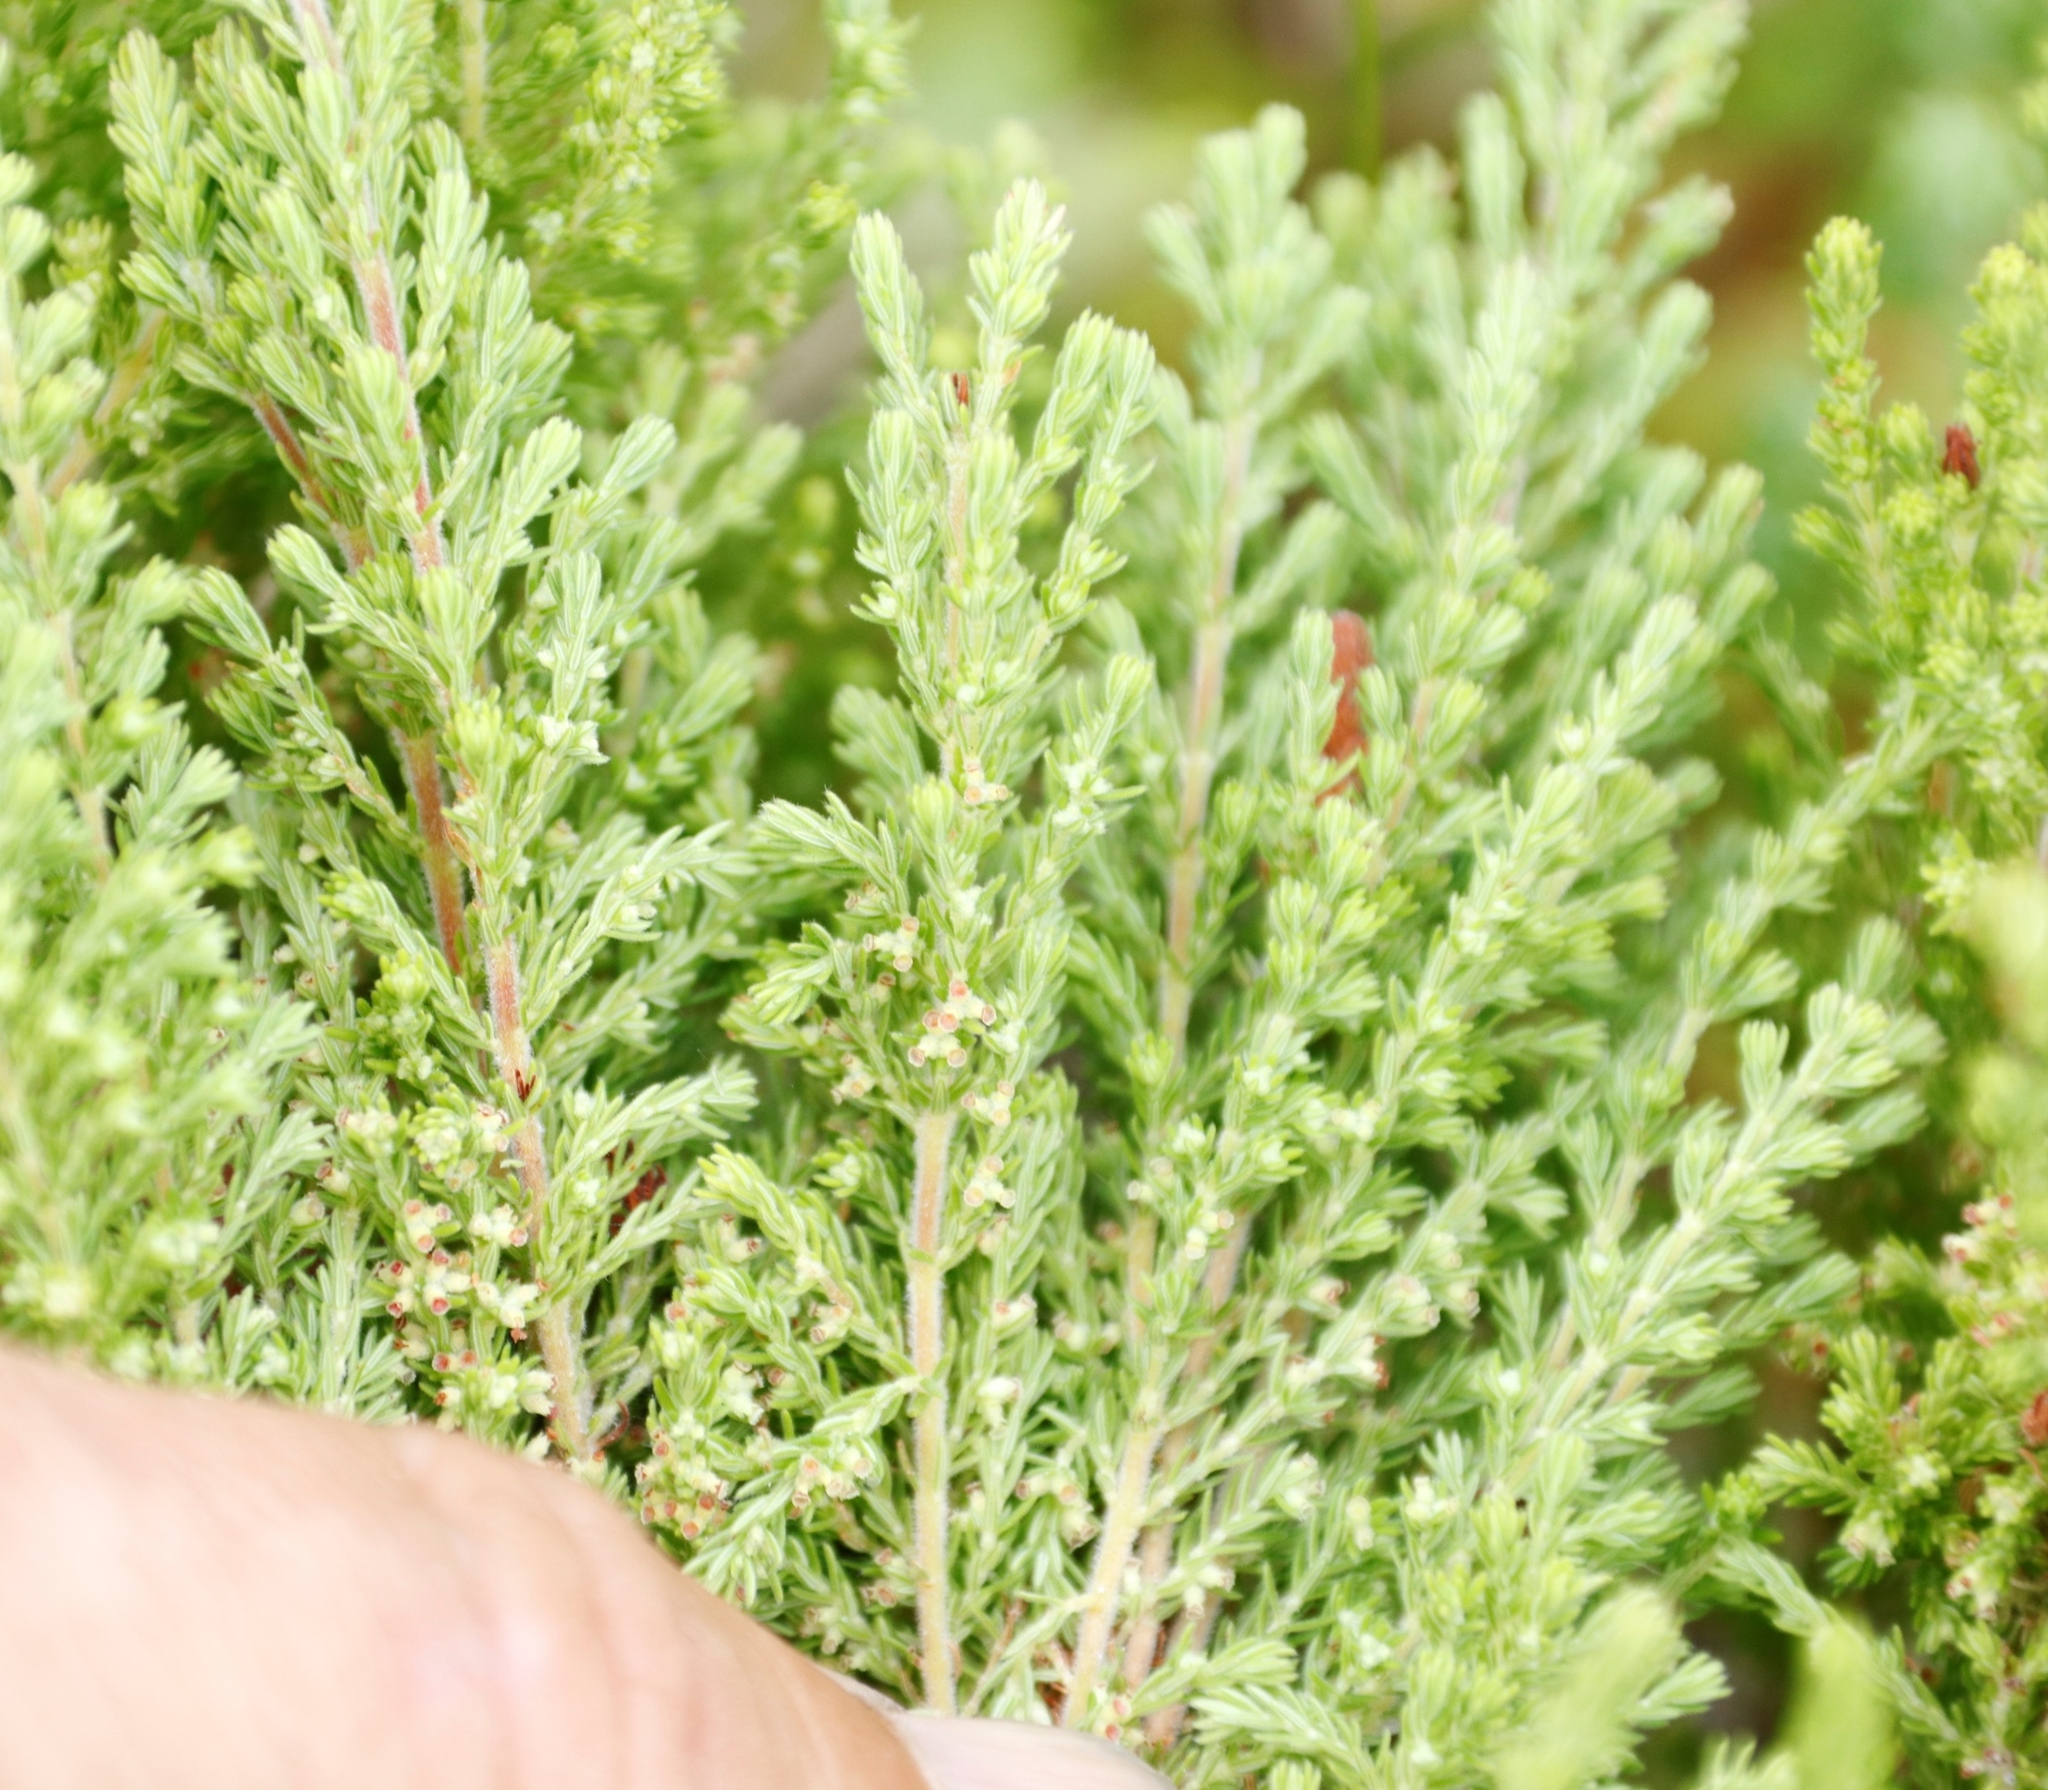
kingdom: Plantae
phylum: Tracheophyta
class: Magnoliopsida
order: Ericales
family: Ericaceae
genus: Erica
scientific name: Erica urceolata
